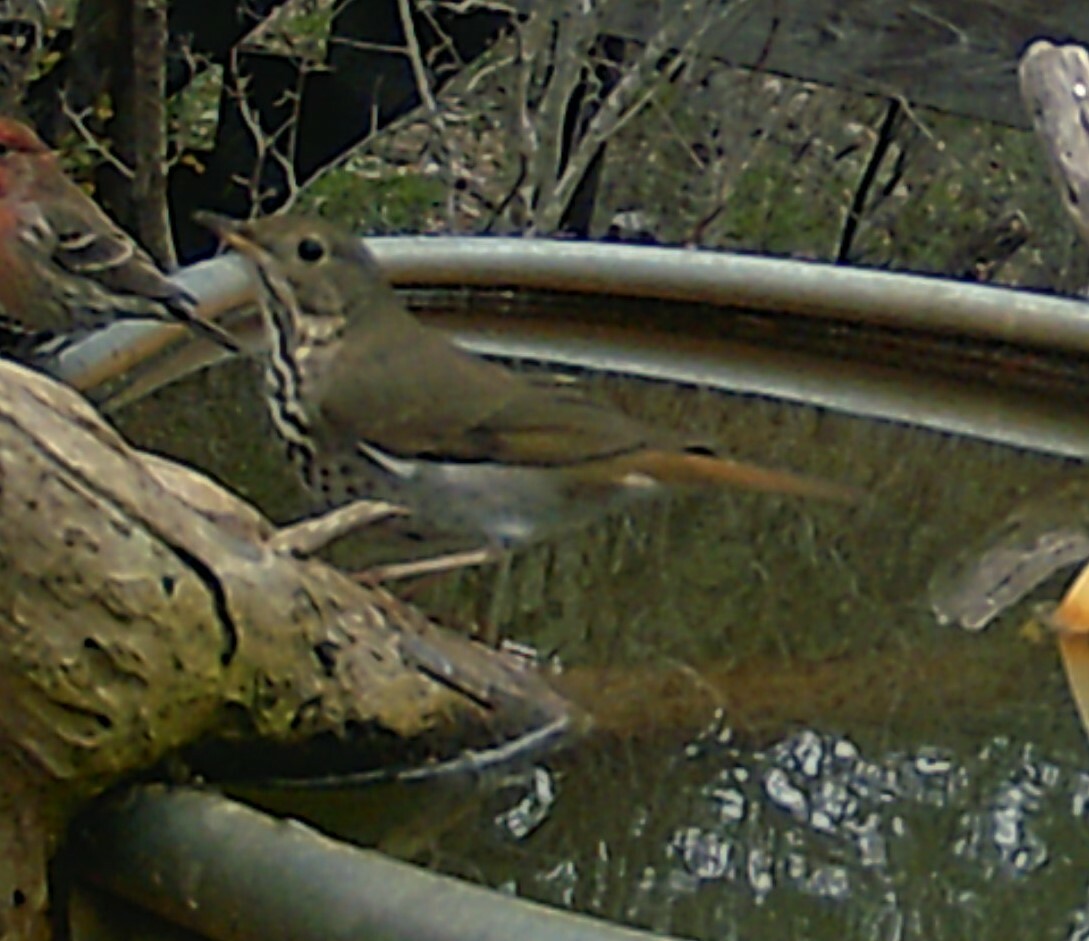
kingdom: Animalia
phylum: Chordata
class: Aves
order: Passeriformes
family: Turdidae
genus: Catharus
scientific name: Catharus guttatus
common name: Hermit thrush
